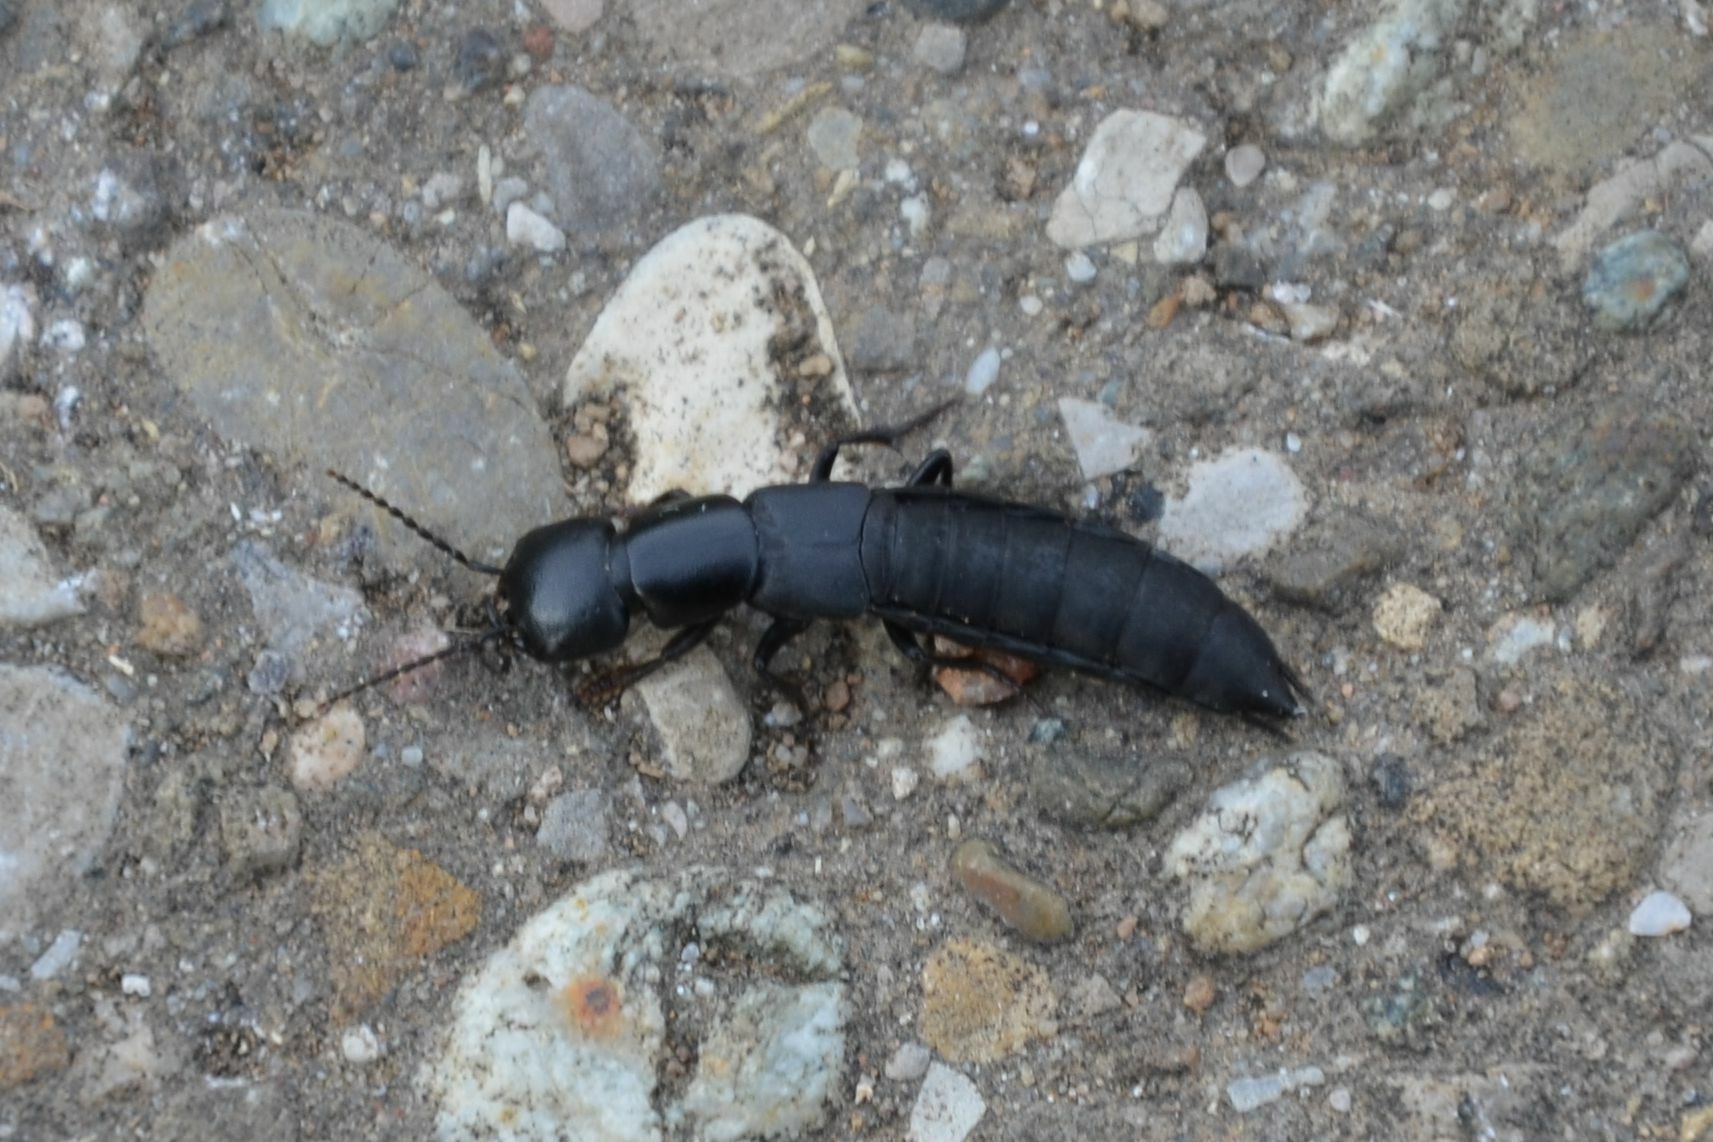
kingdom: Animalia
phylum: Arthropoda
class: Insecta
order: Coleoptera
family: Staphylinidae
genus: Ocypus
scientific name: Ocypus nitens
